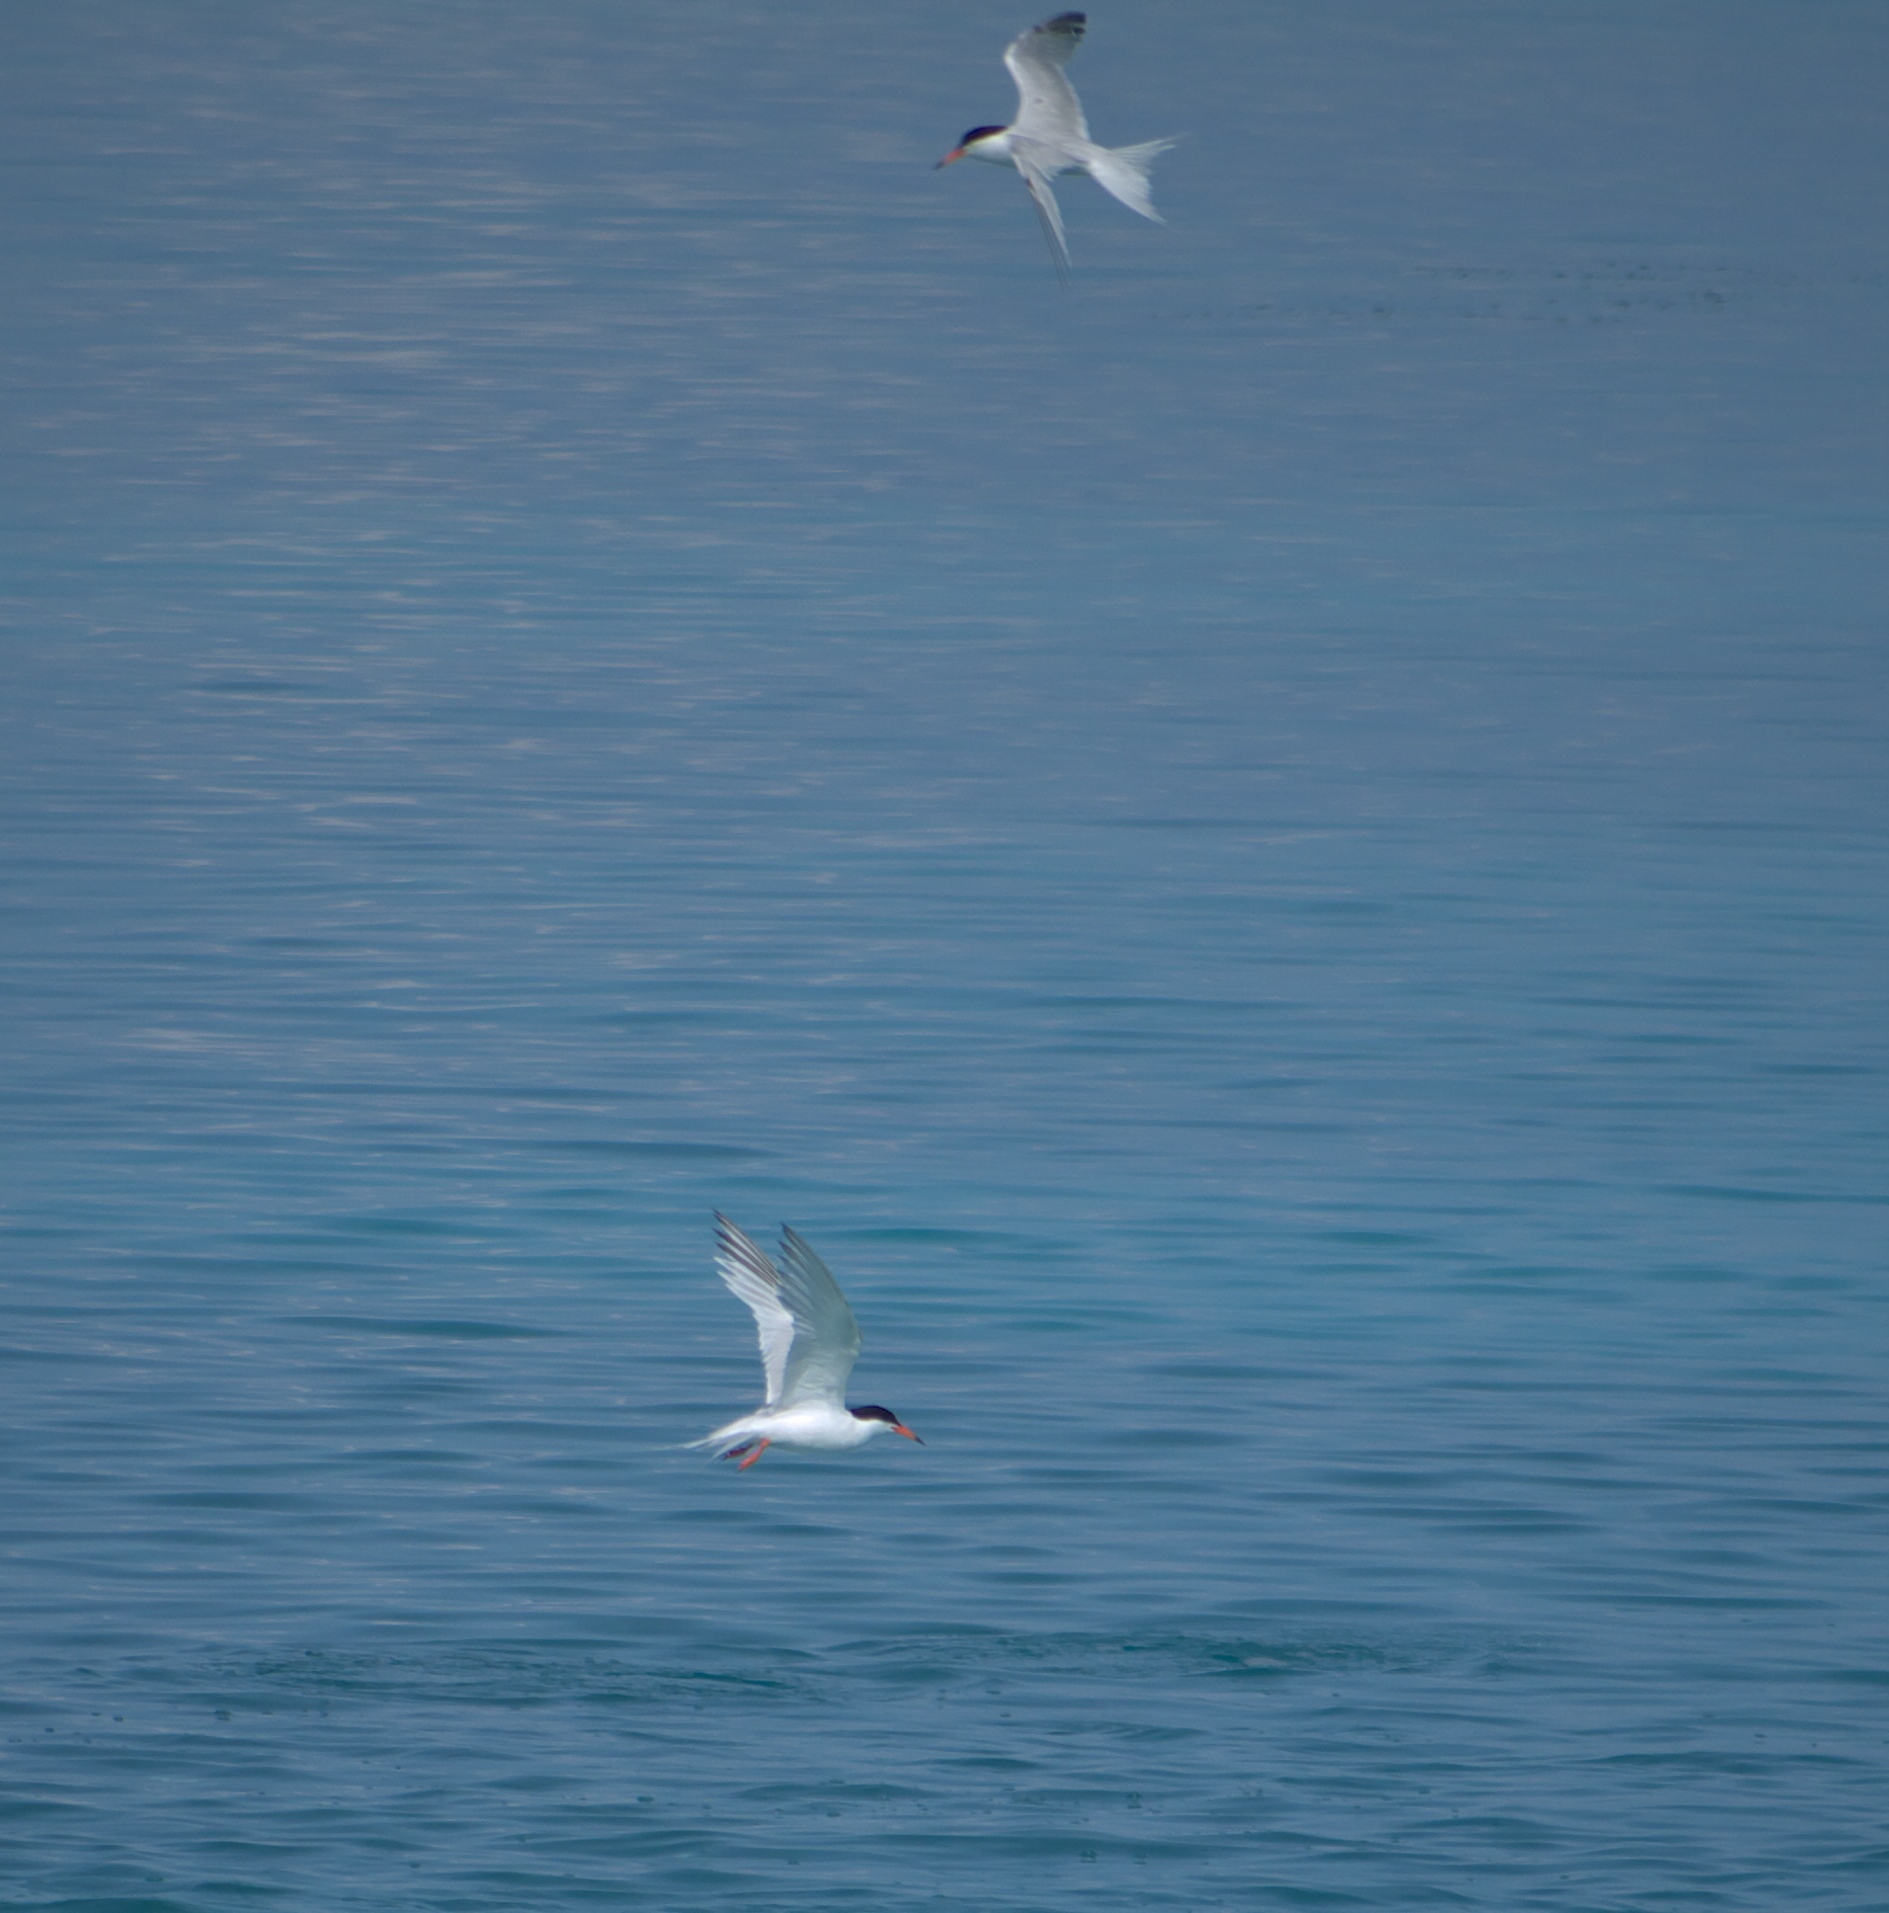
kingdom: Animalia
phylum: Chordata
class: Aves
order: Charadriiformes
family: Laridae
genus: Sterna
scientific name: Sterna forsteri
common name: Forster's tern
